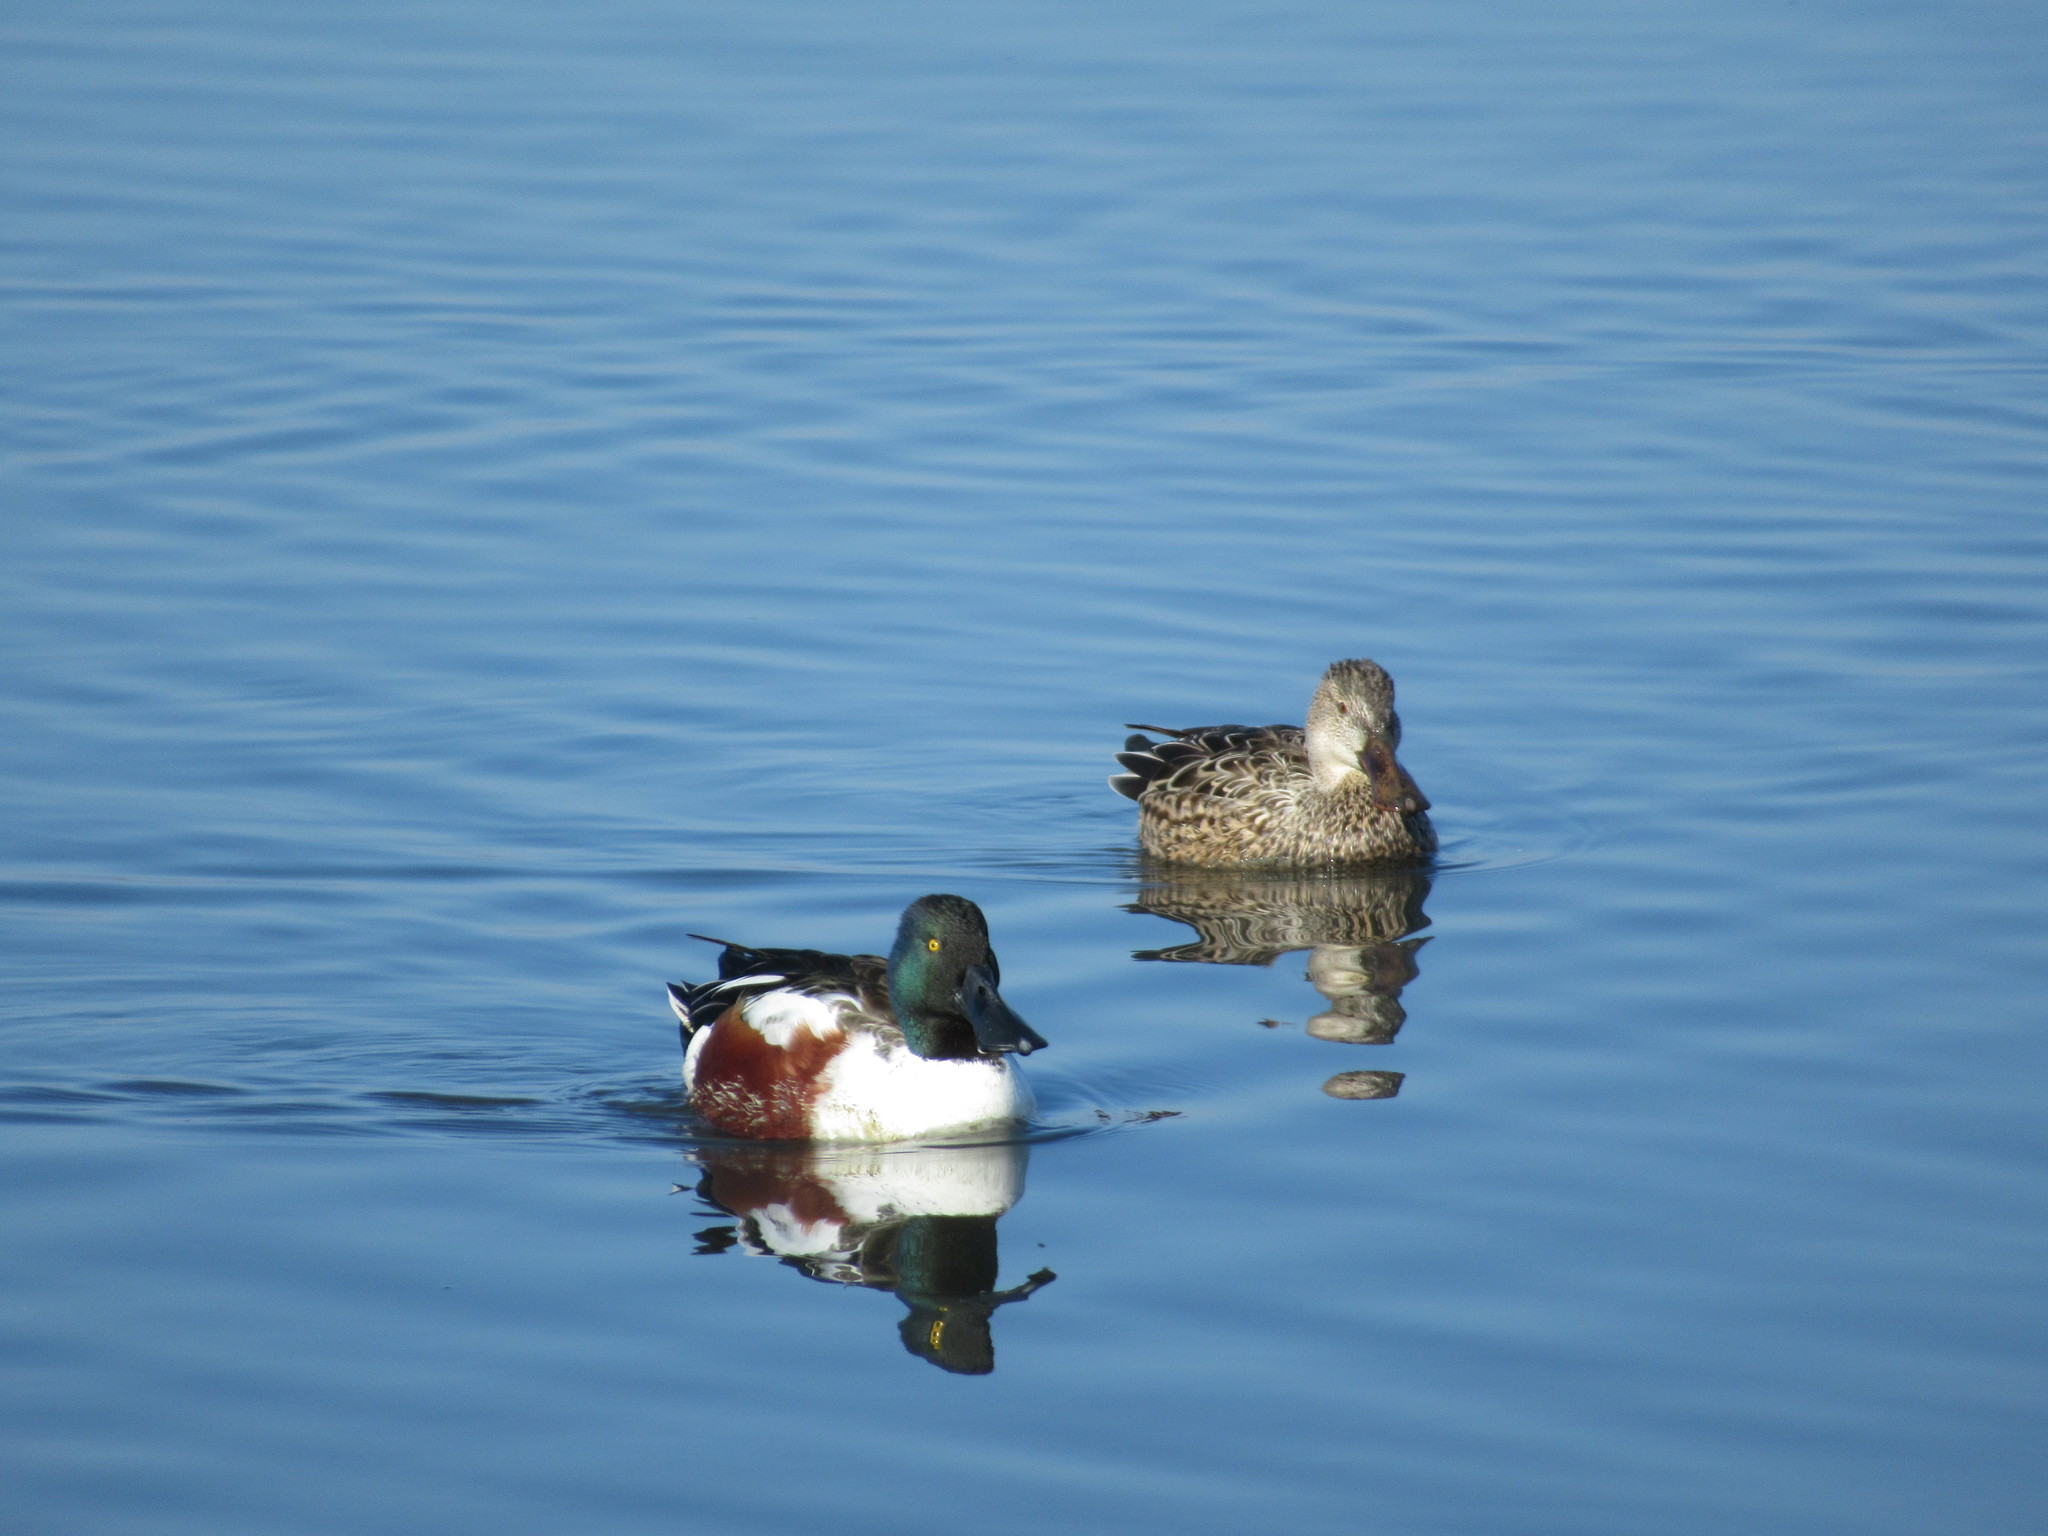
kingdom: Animalia
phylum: Chordata
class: Aves
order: Anseriformes
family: Anatidae
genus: Spatula
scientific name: Spatula clypeata
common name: Northern shoveler
